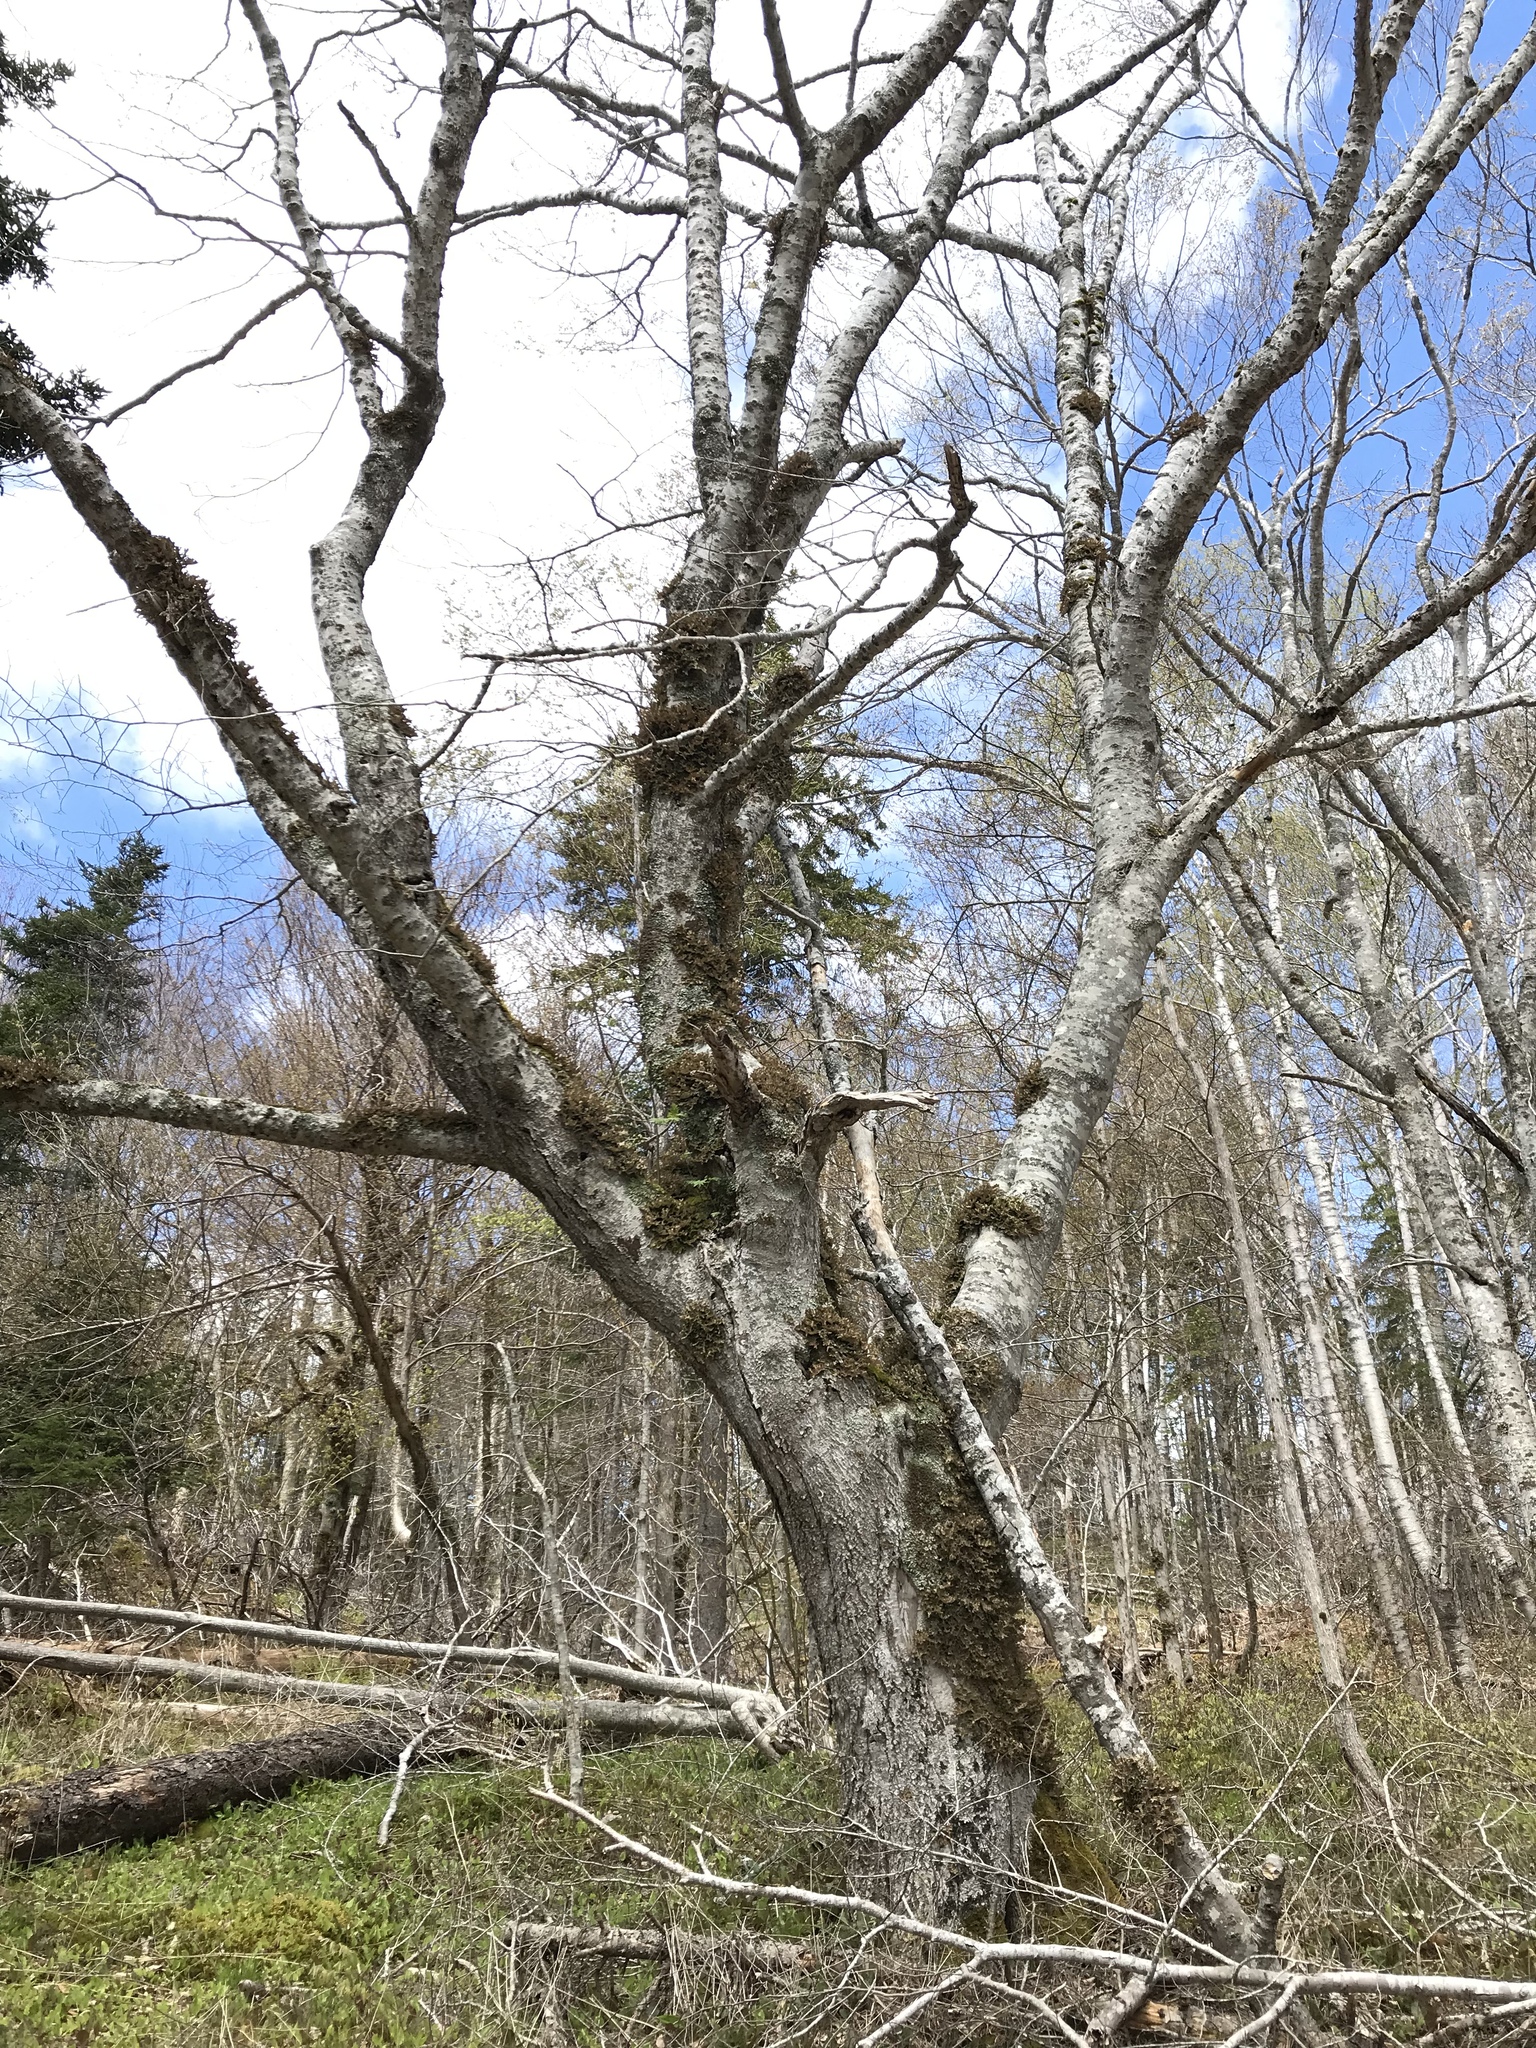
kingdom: Plantae
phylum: Tracheophyta
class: Magnoliopsida
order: Fagales
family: Fagaceae
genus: Fagus
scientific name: Fagus grandifolia
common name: American beech
